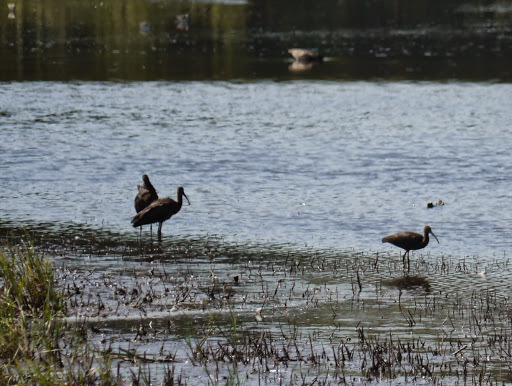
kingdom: Animalia
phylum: Chordata
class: Aves
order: Pelecaniformes
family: Threskiornithidae
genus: Plegadis
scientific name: Plegadis falcinellus
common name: Glossy ibis
